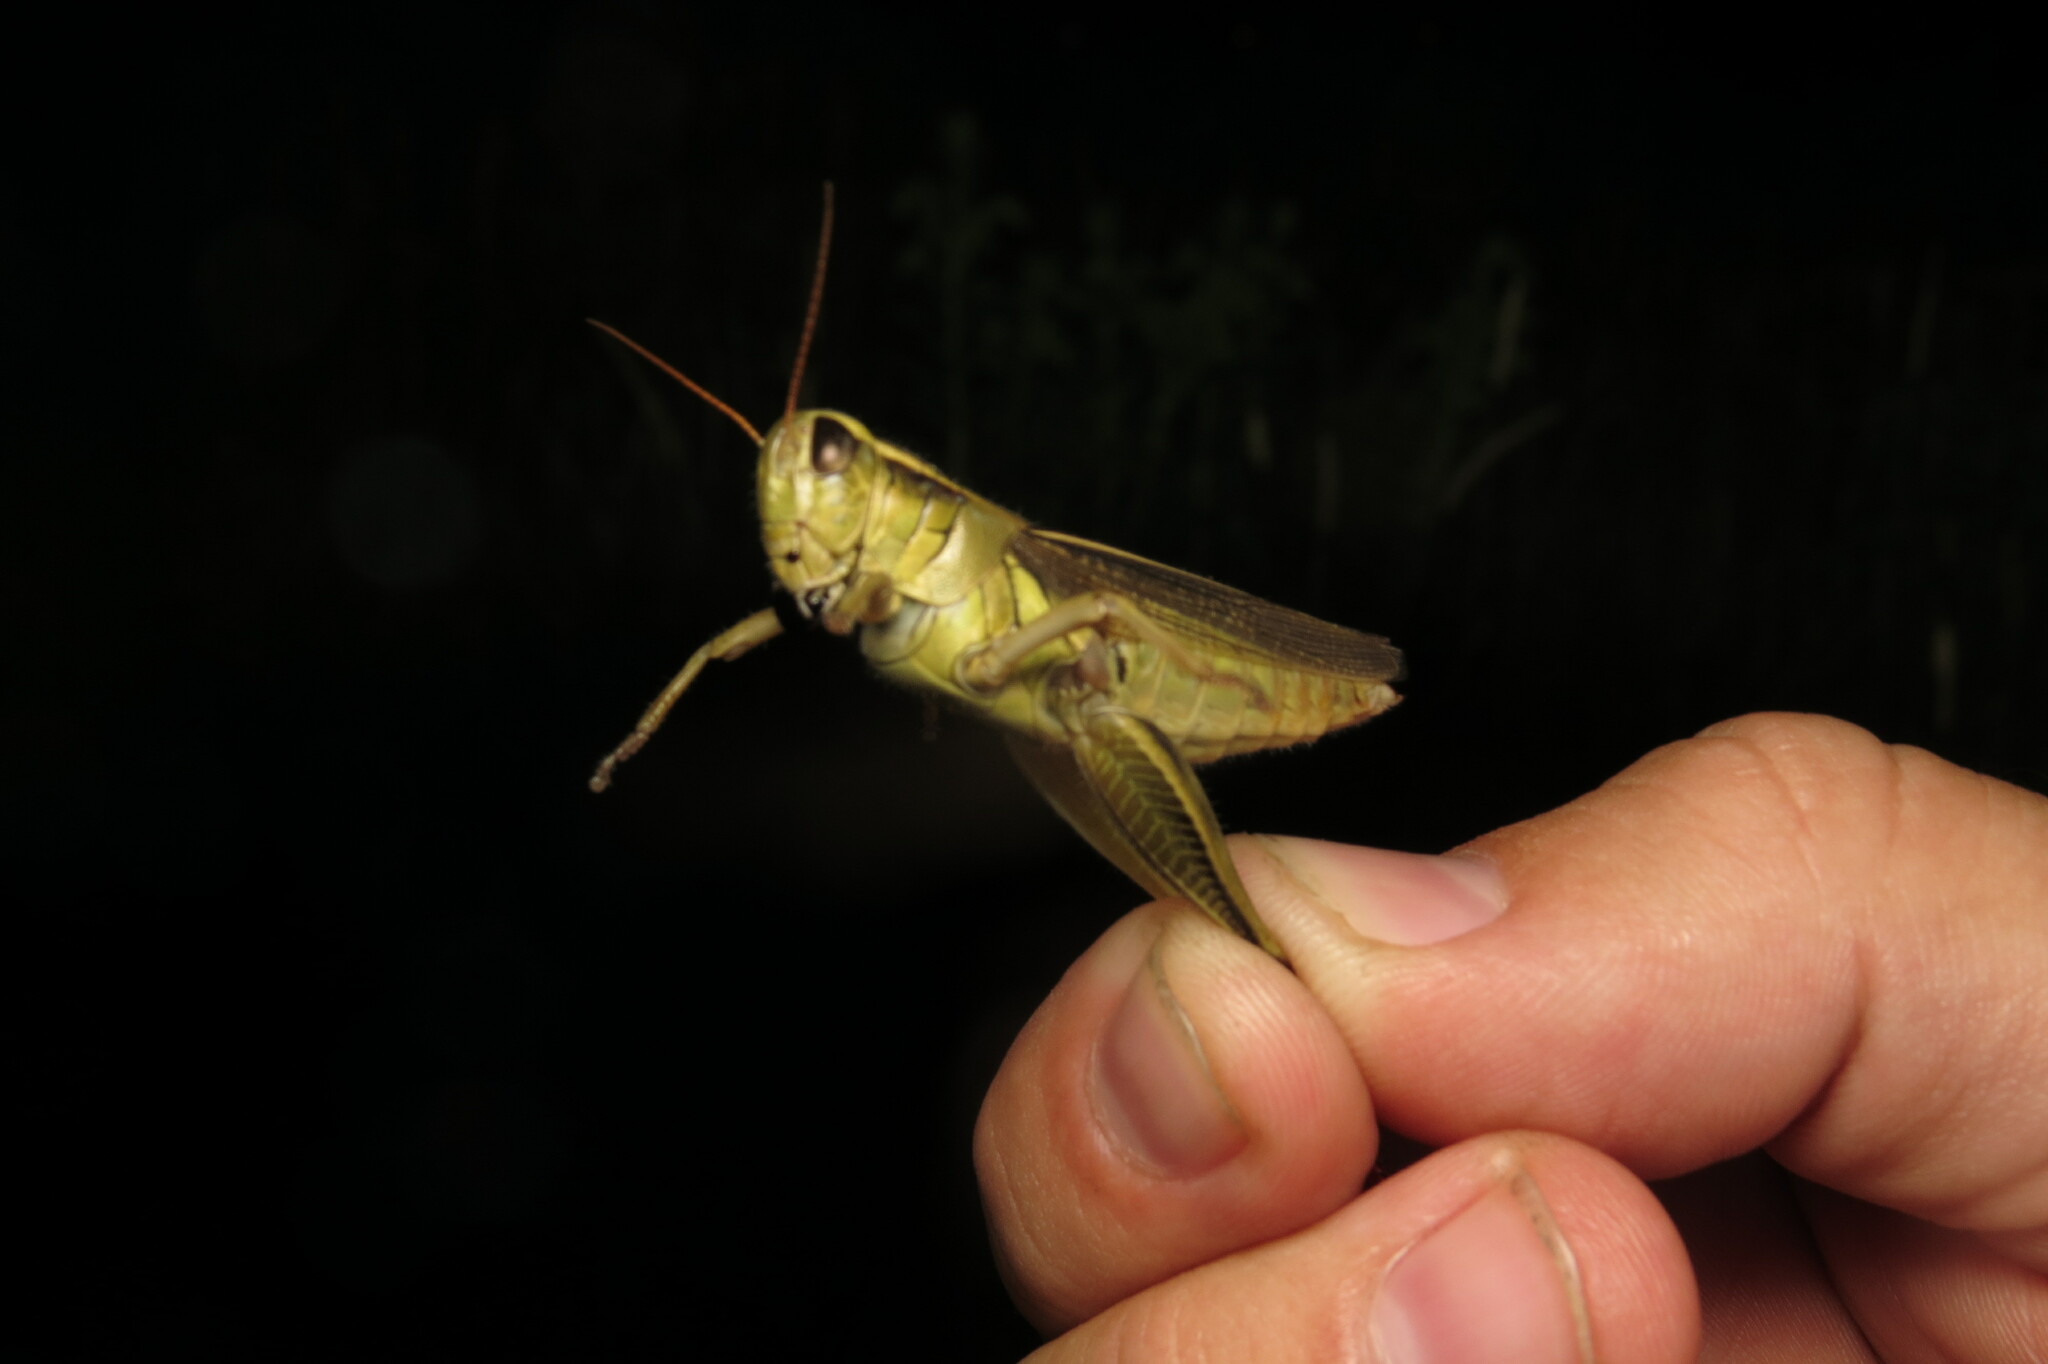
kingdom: Animalia
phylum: Arthropoda
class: Insecta
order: Orthoptera
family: Acrididae
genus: Melanoplus
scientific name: Melanoplus bivittatus
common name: Two-striped grasshopper
